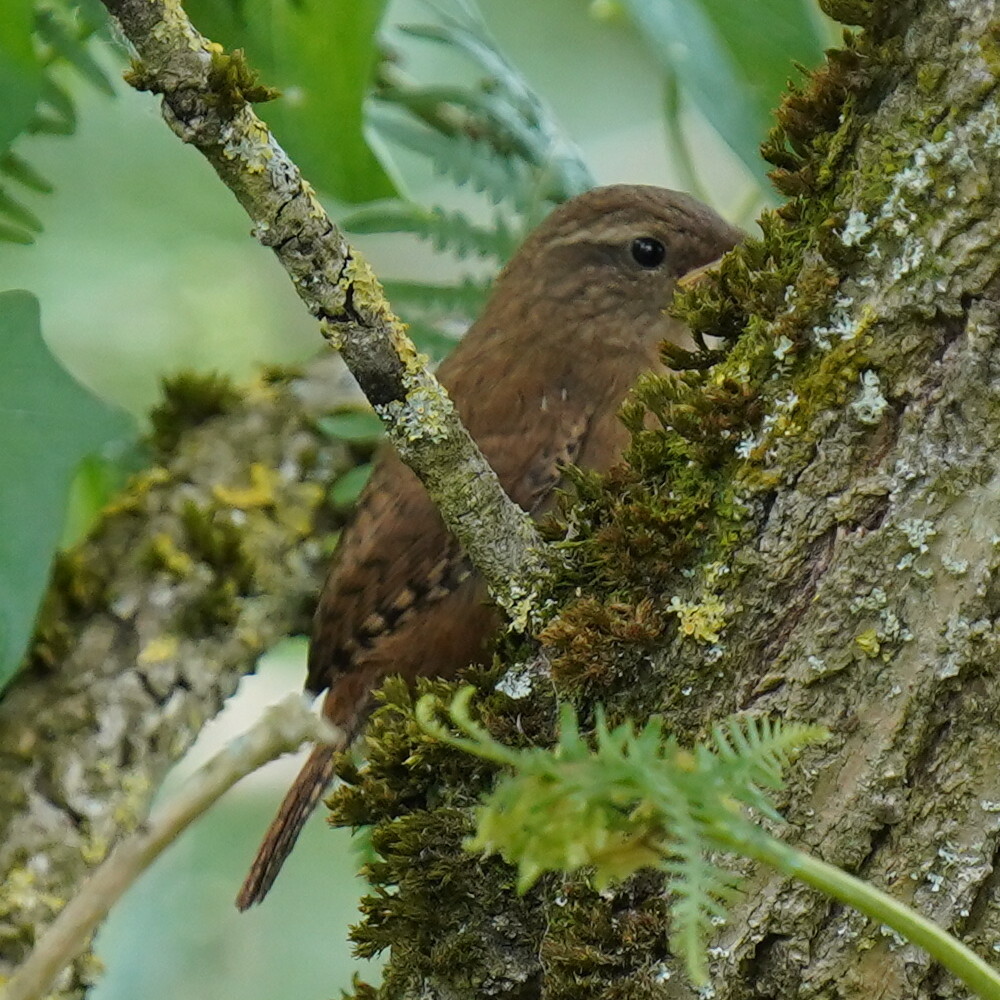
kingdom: Animalia
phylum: Chordata
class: Aves
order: Passeriformes
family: Troglodytidae
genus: Troglodytes
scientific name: Troglodytes troglodytes
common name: Eurasian wren
